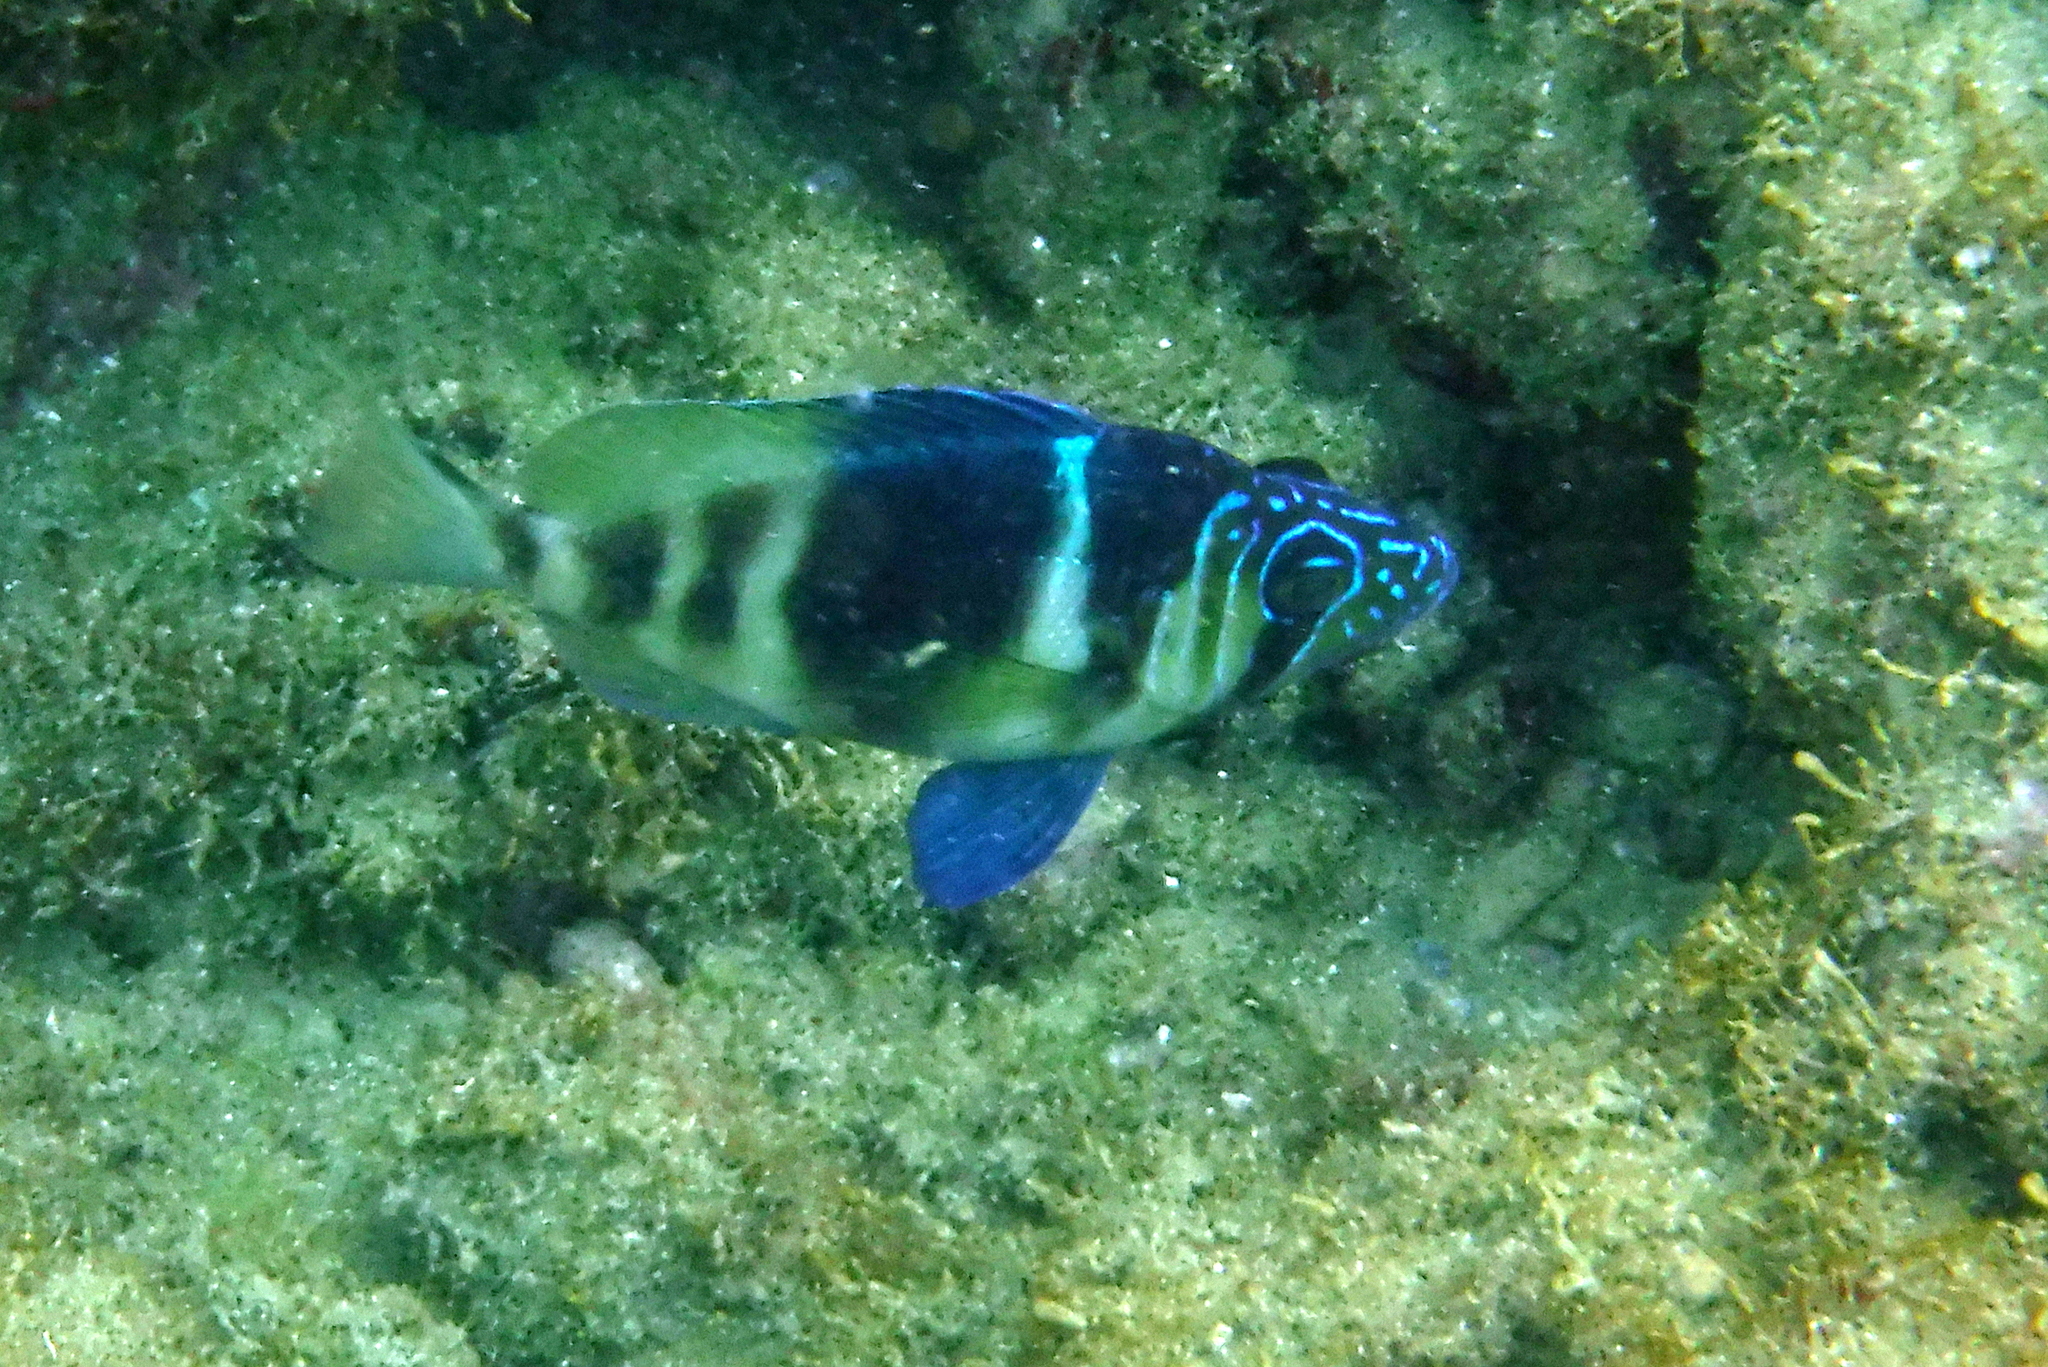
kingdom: Animalia
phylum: Chordata
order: Perciformes
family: Serranidae
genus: Hypoplectrus
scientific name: Hypoplectrus puella
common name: Barred hamlet
